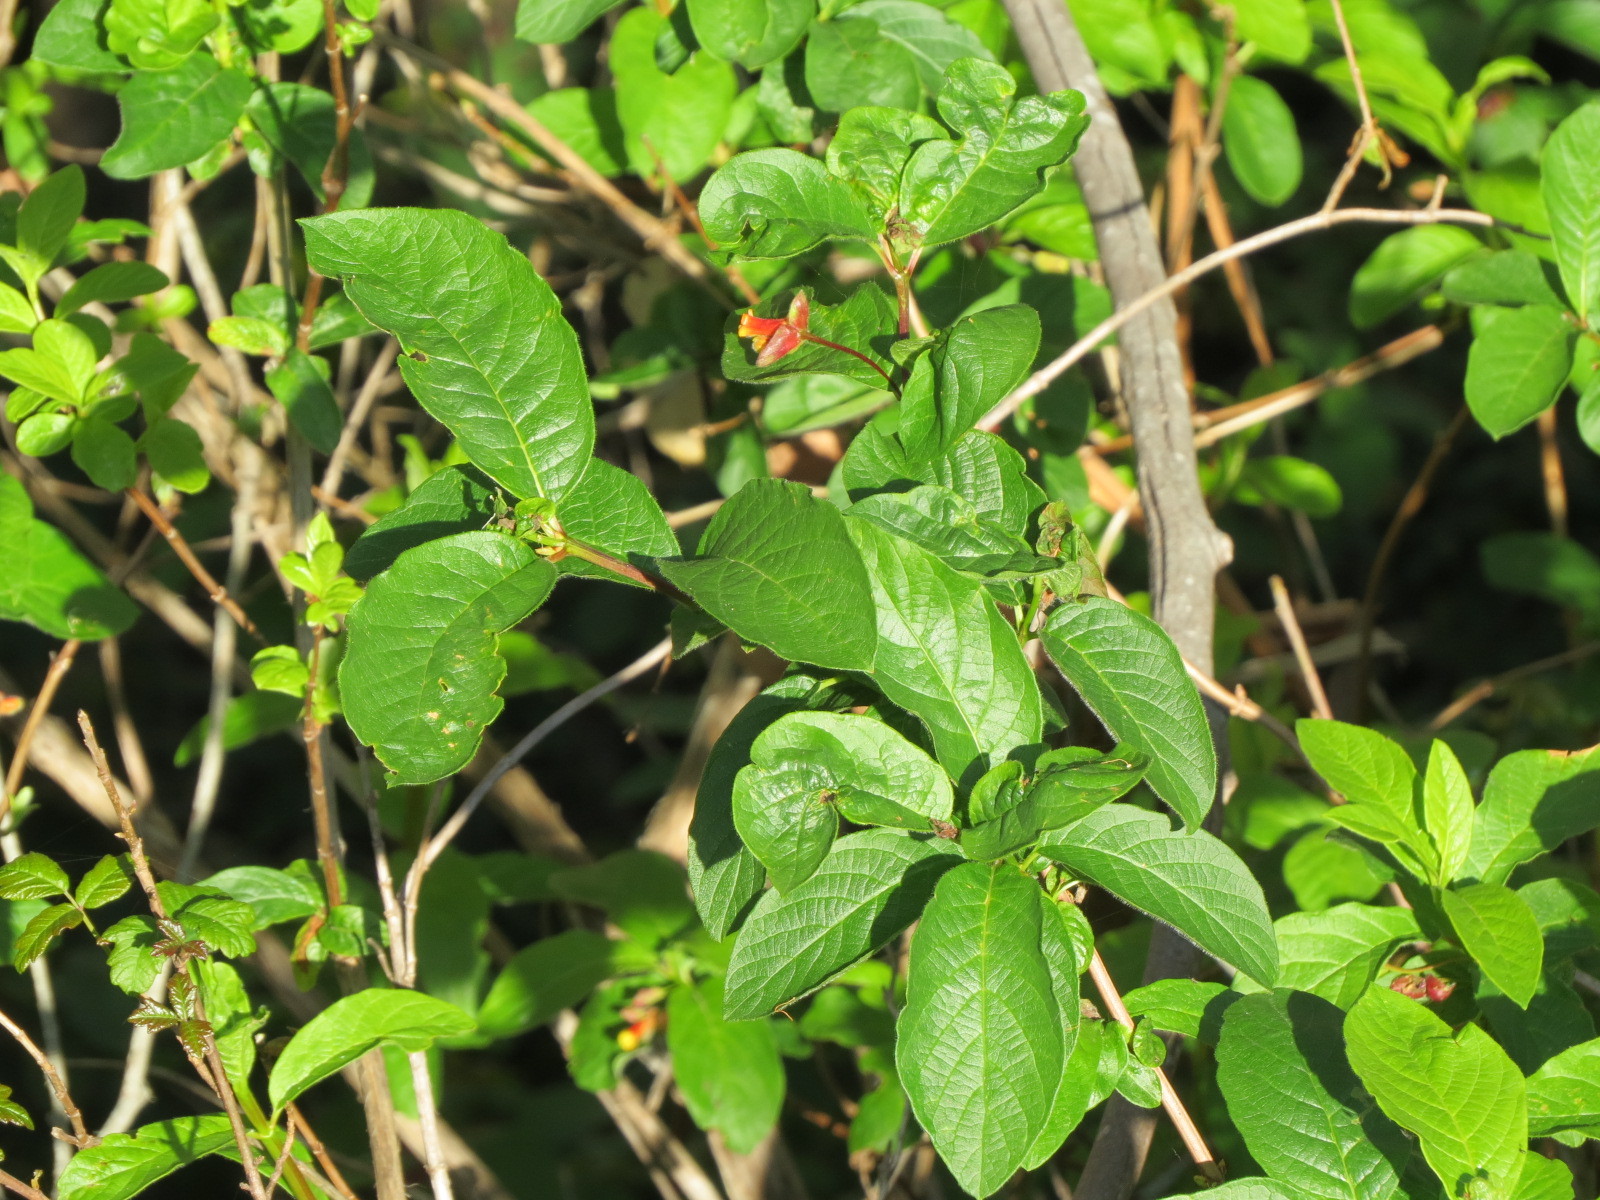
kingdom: Plantae
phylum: Tracheophyta
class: Magnoliopsida
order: Dipsacales
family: Caprifoliaceae
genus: Lonicera
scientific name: Lonicera involucrata
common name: Californian honeysuckle
